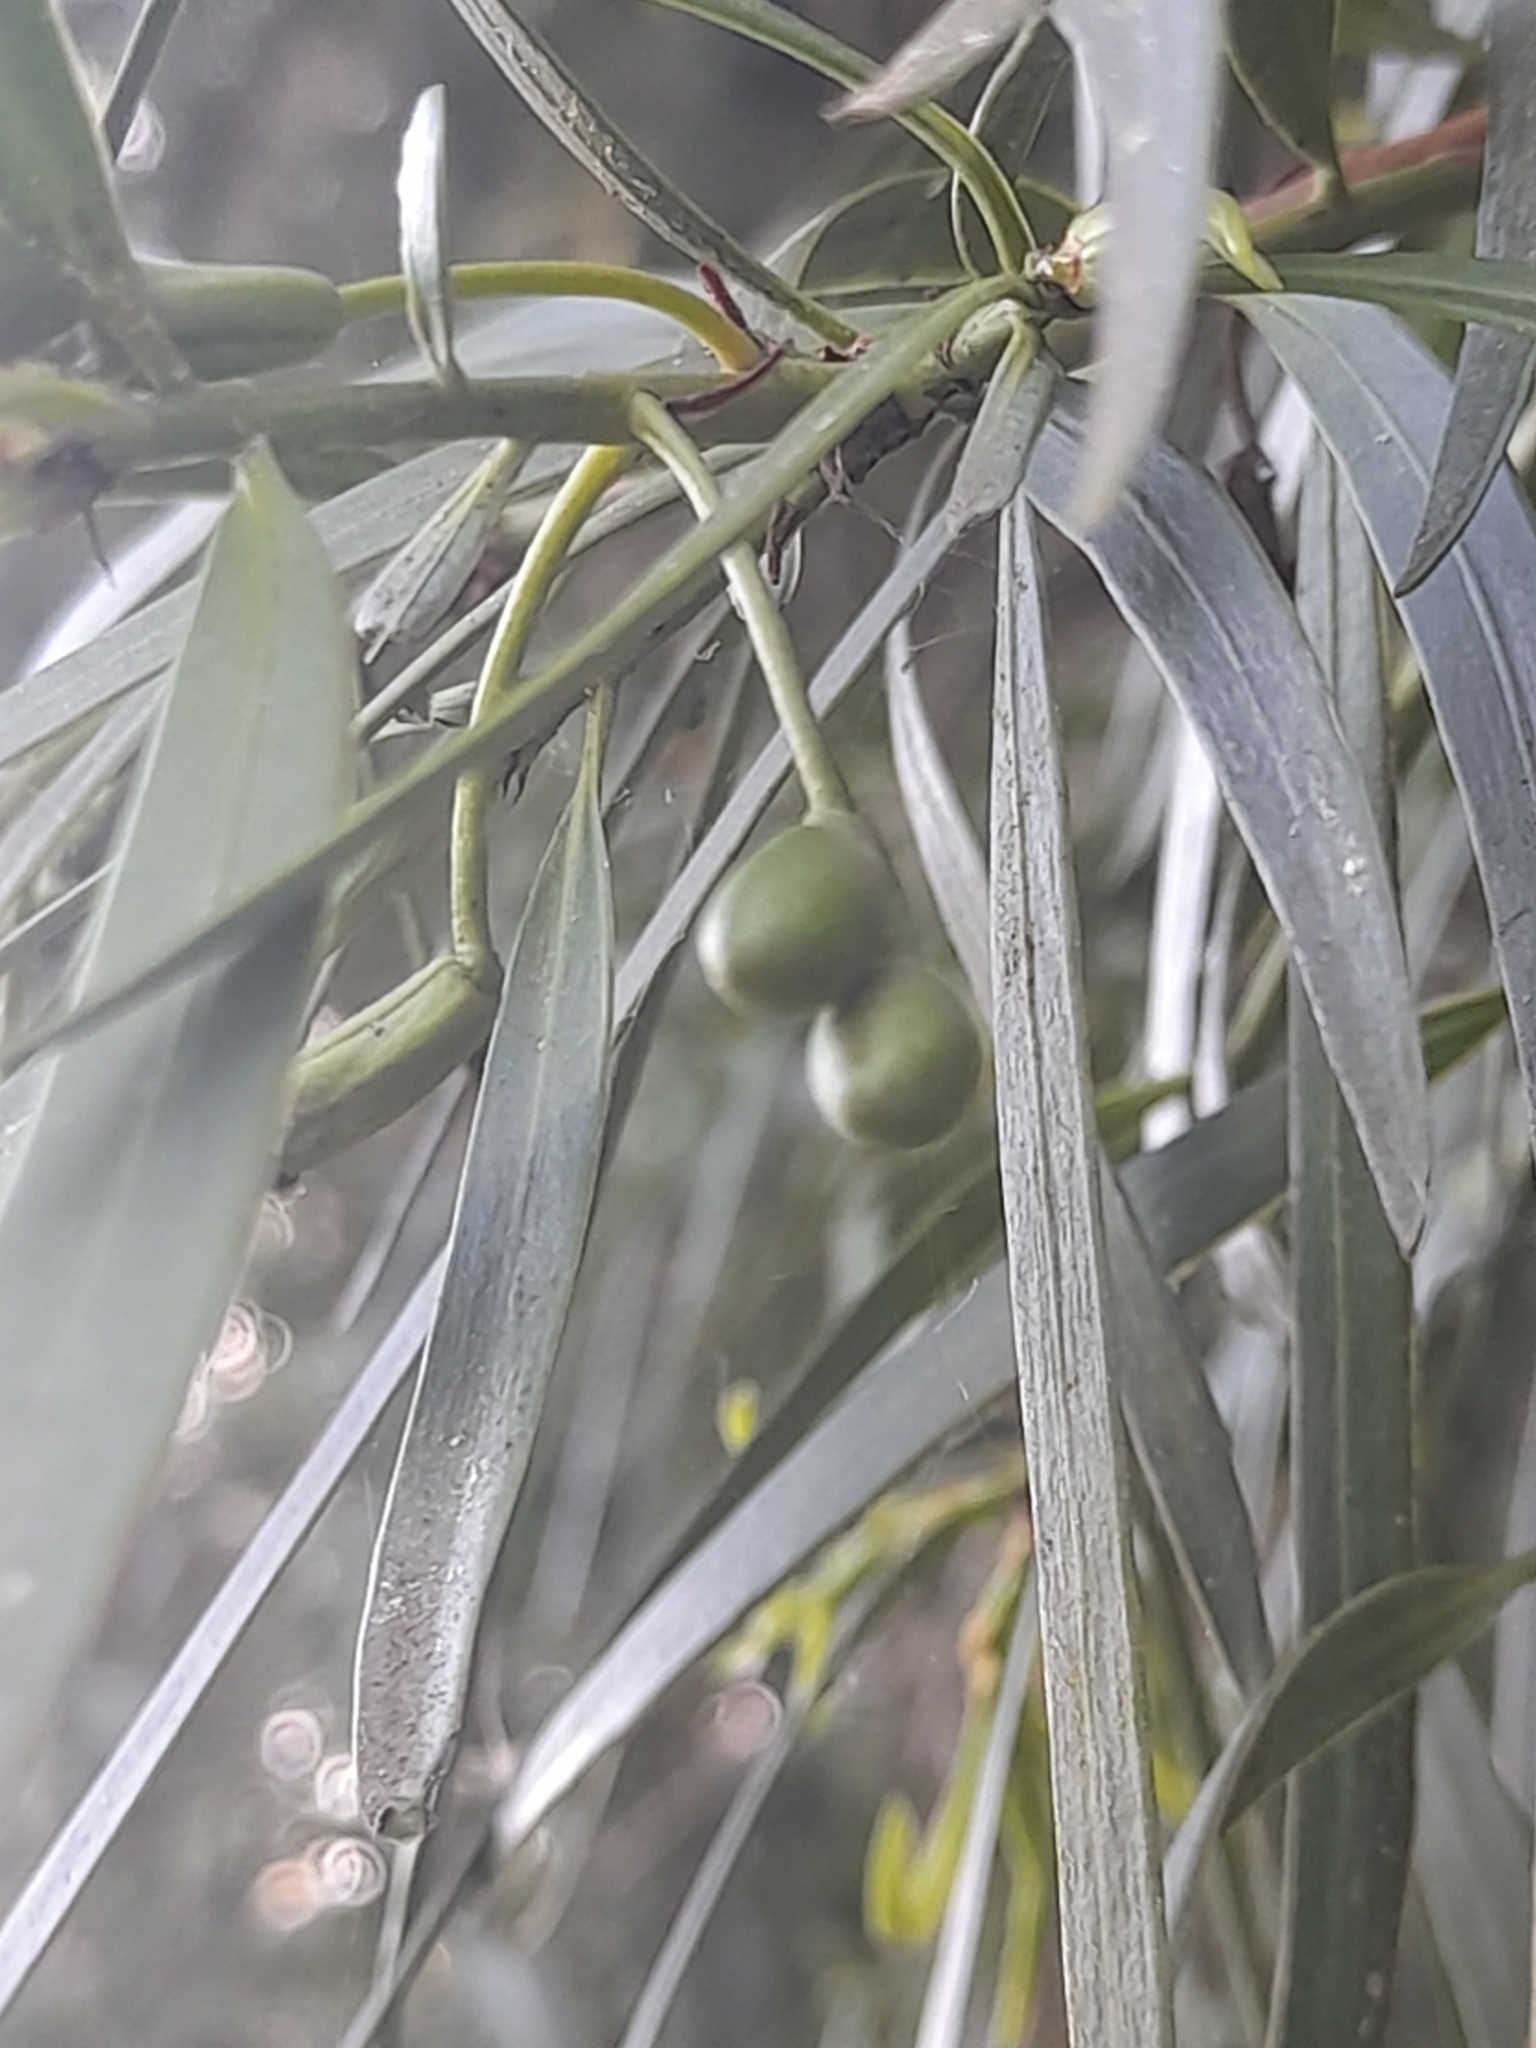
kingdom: Plantae
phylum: Tracheophyta
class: Pinopsida
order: Pinales
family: Podocarpaceae
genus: Podocarpus
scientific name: Podocarpus salignus
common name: Willow-leaf podocarp
